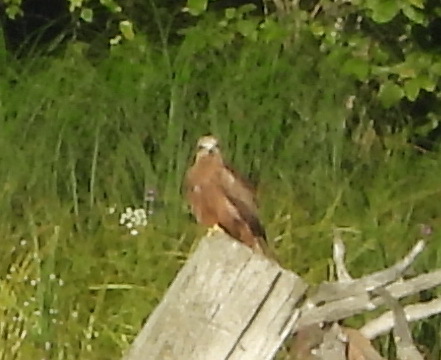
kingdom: Animalia
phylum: Chordata
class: Aves
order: Accipitriformes
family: Accipitridae
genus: Milvus
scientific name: Milvus migrans
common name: Black kite
